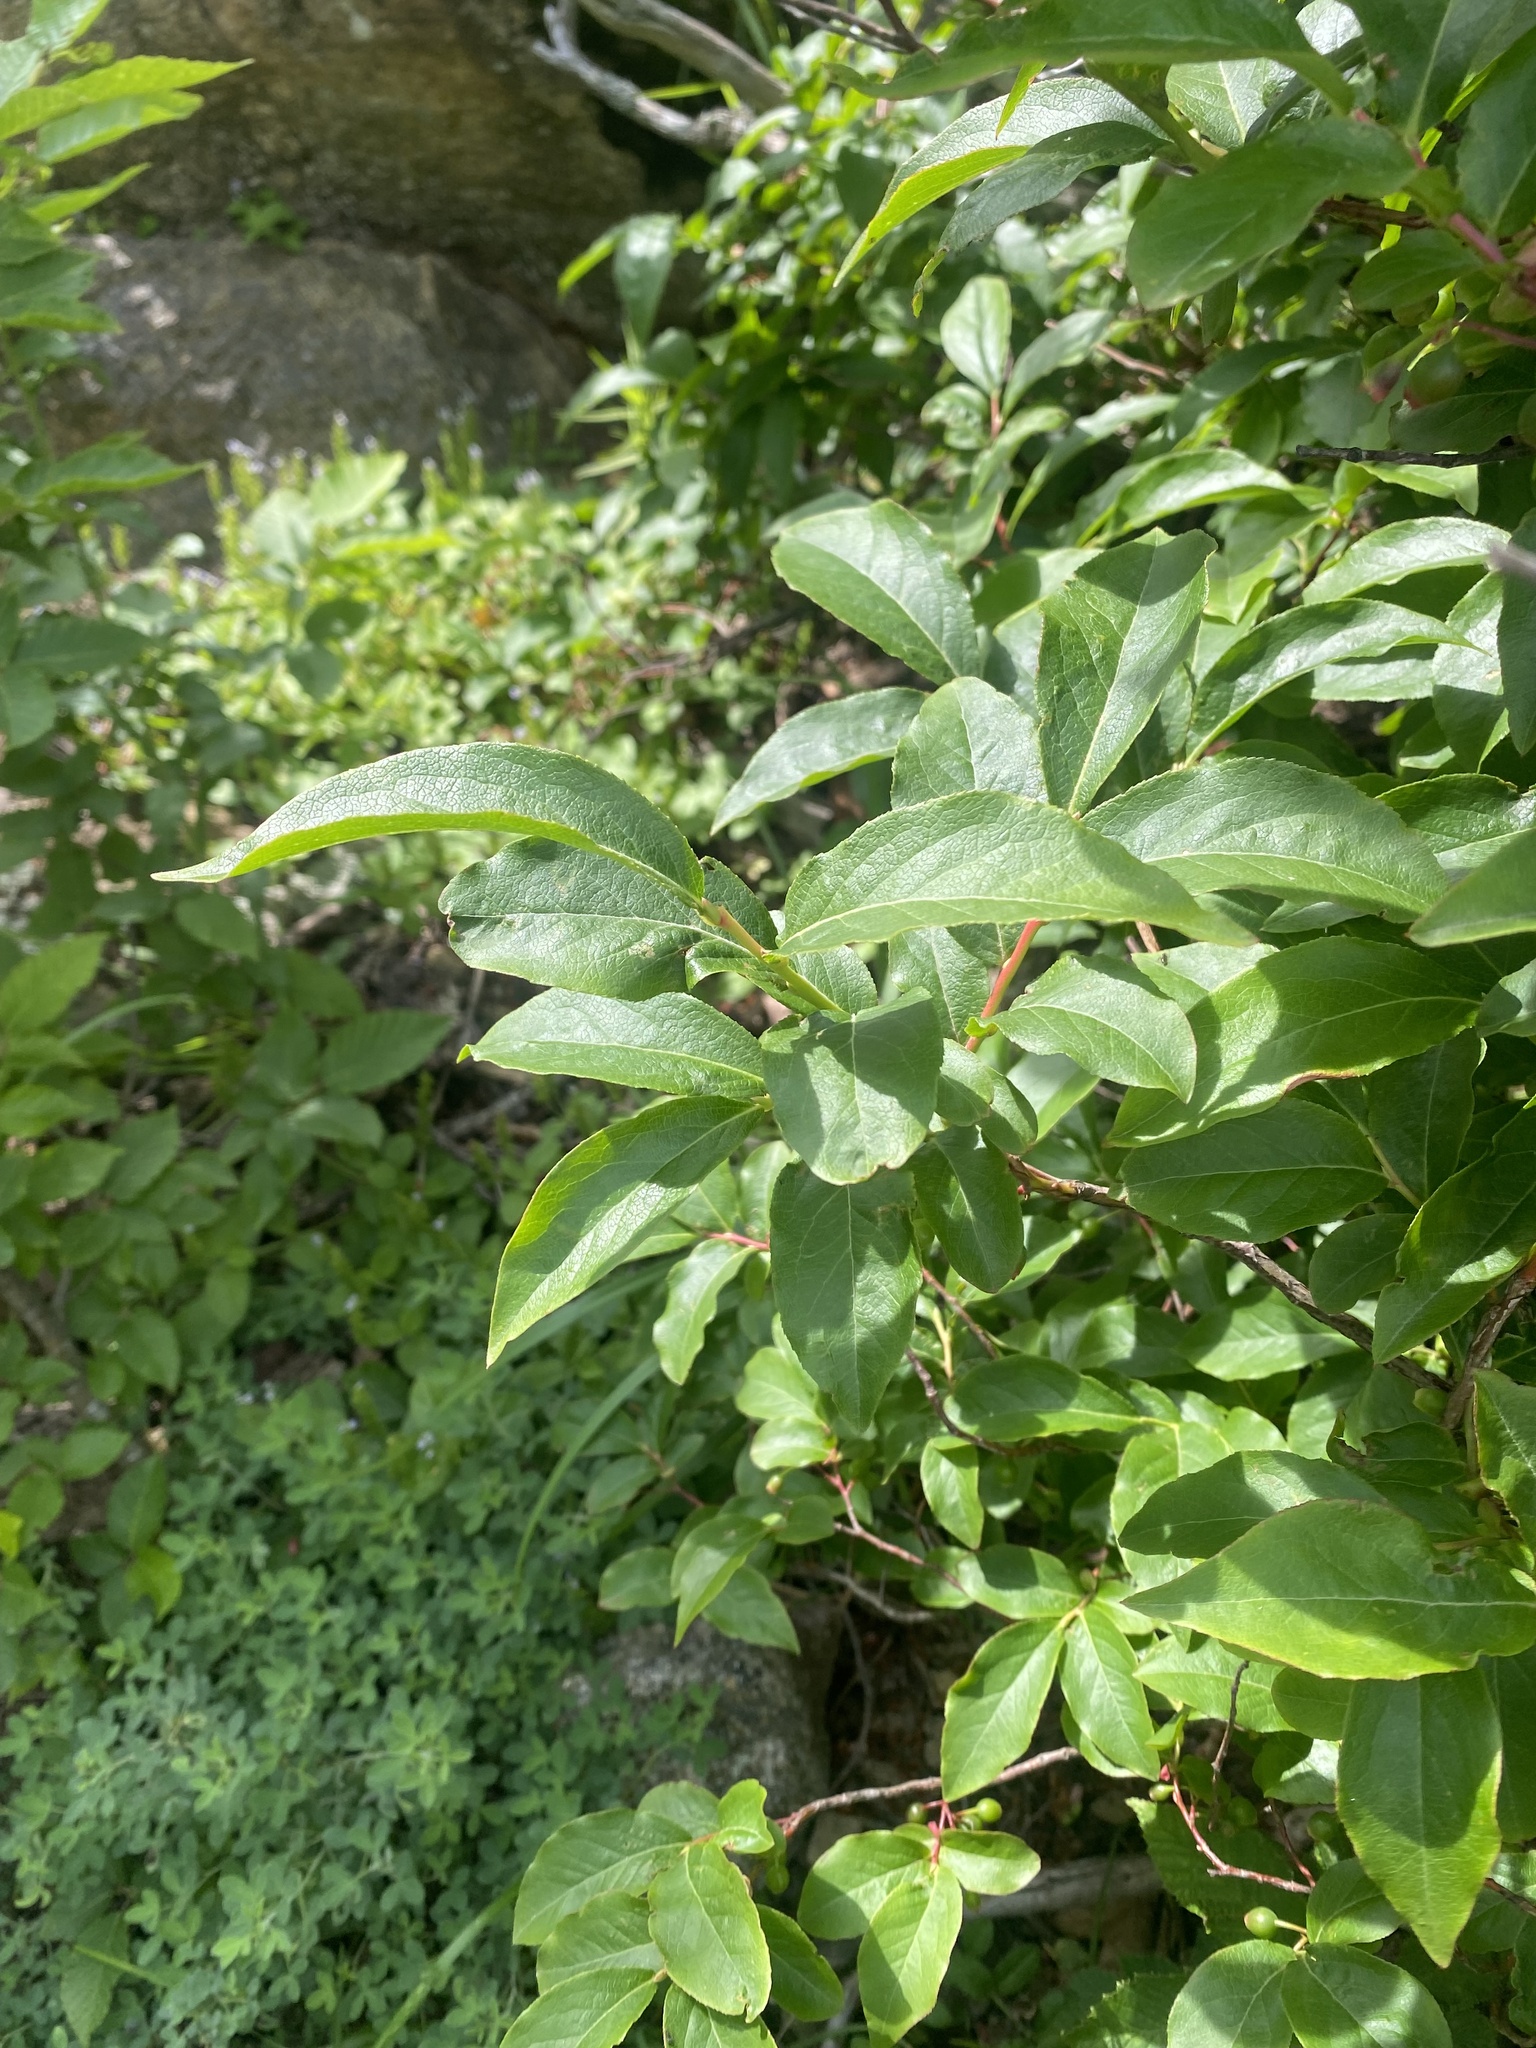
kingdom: Plantae
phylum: Tracheophyta
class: Magnoliopsida
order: Ericales
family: Ericaceae
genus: Vaccinium
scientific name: Vaccinium arctostaphylos
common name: Caucasian whortleberry
